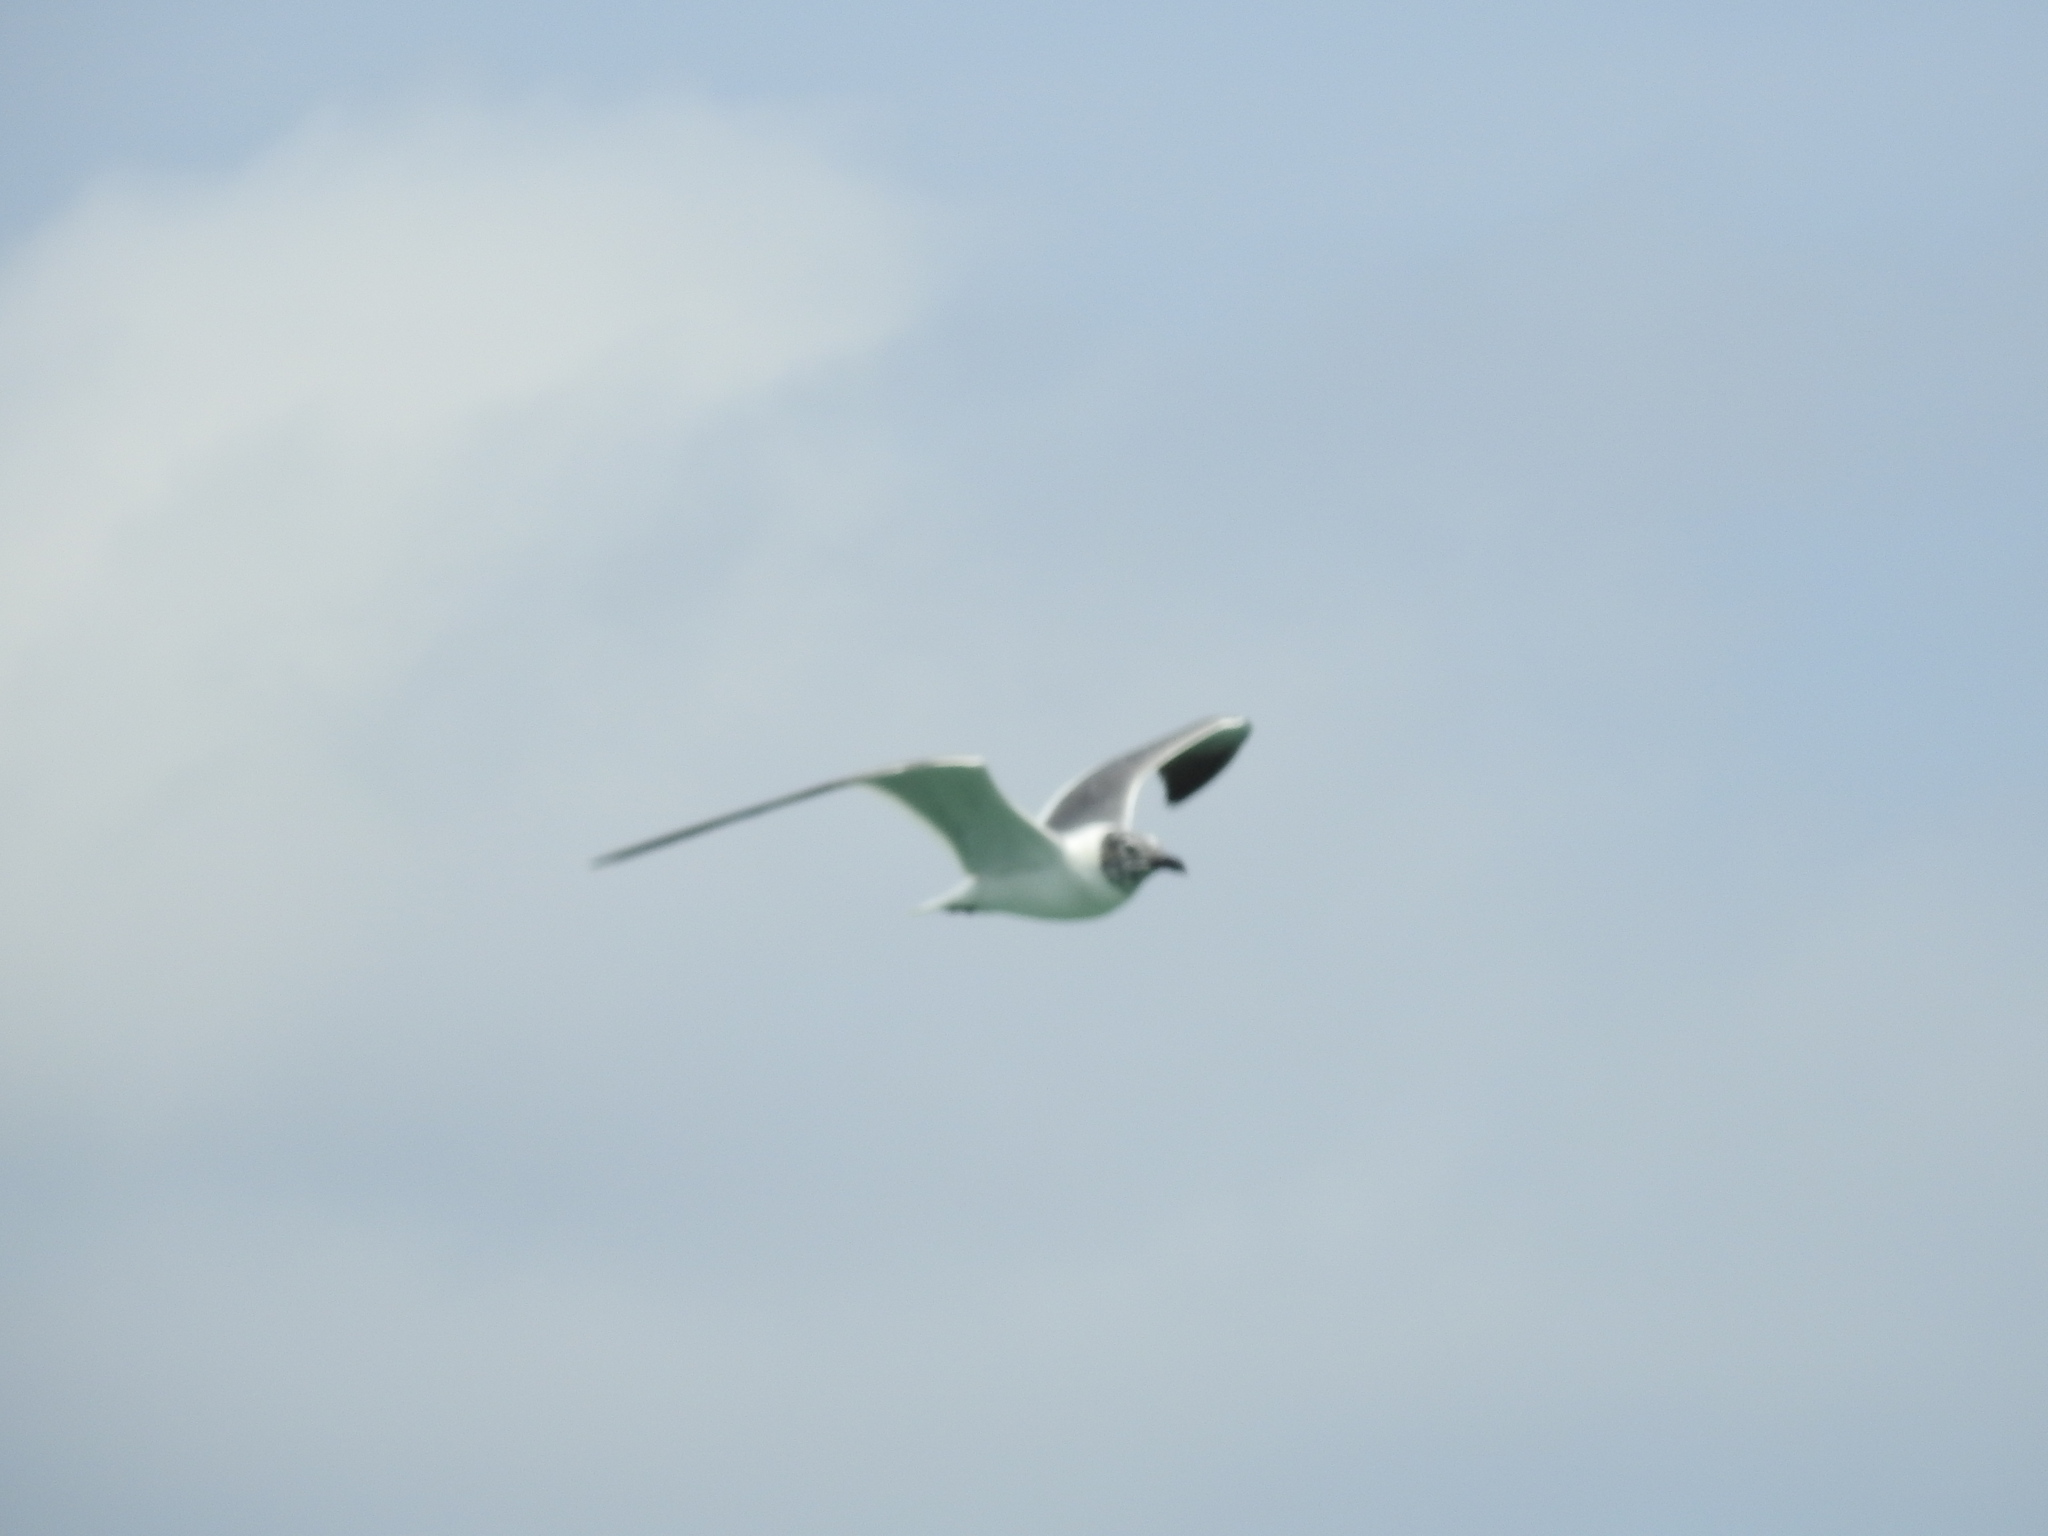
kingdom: Animalia
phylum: Chordata
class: Aves
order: Charadriiformes
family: Laridae
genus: Leucophaeus
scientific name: Leucophaeus atricilla
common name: Laughing gull
